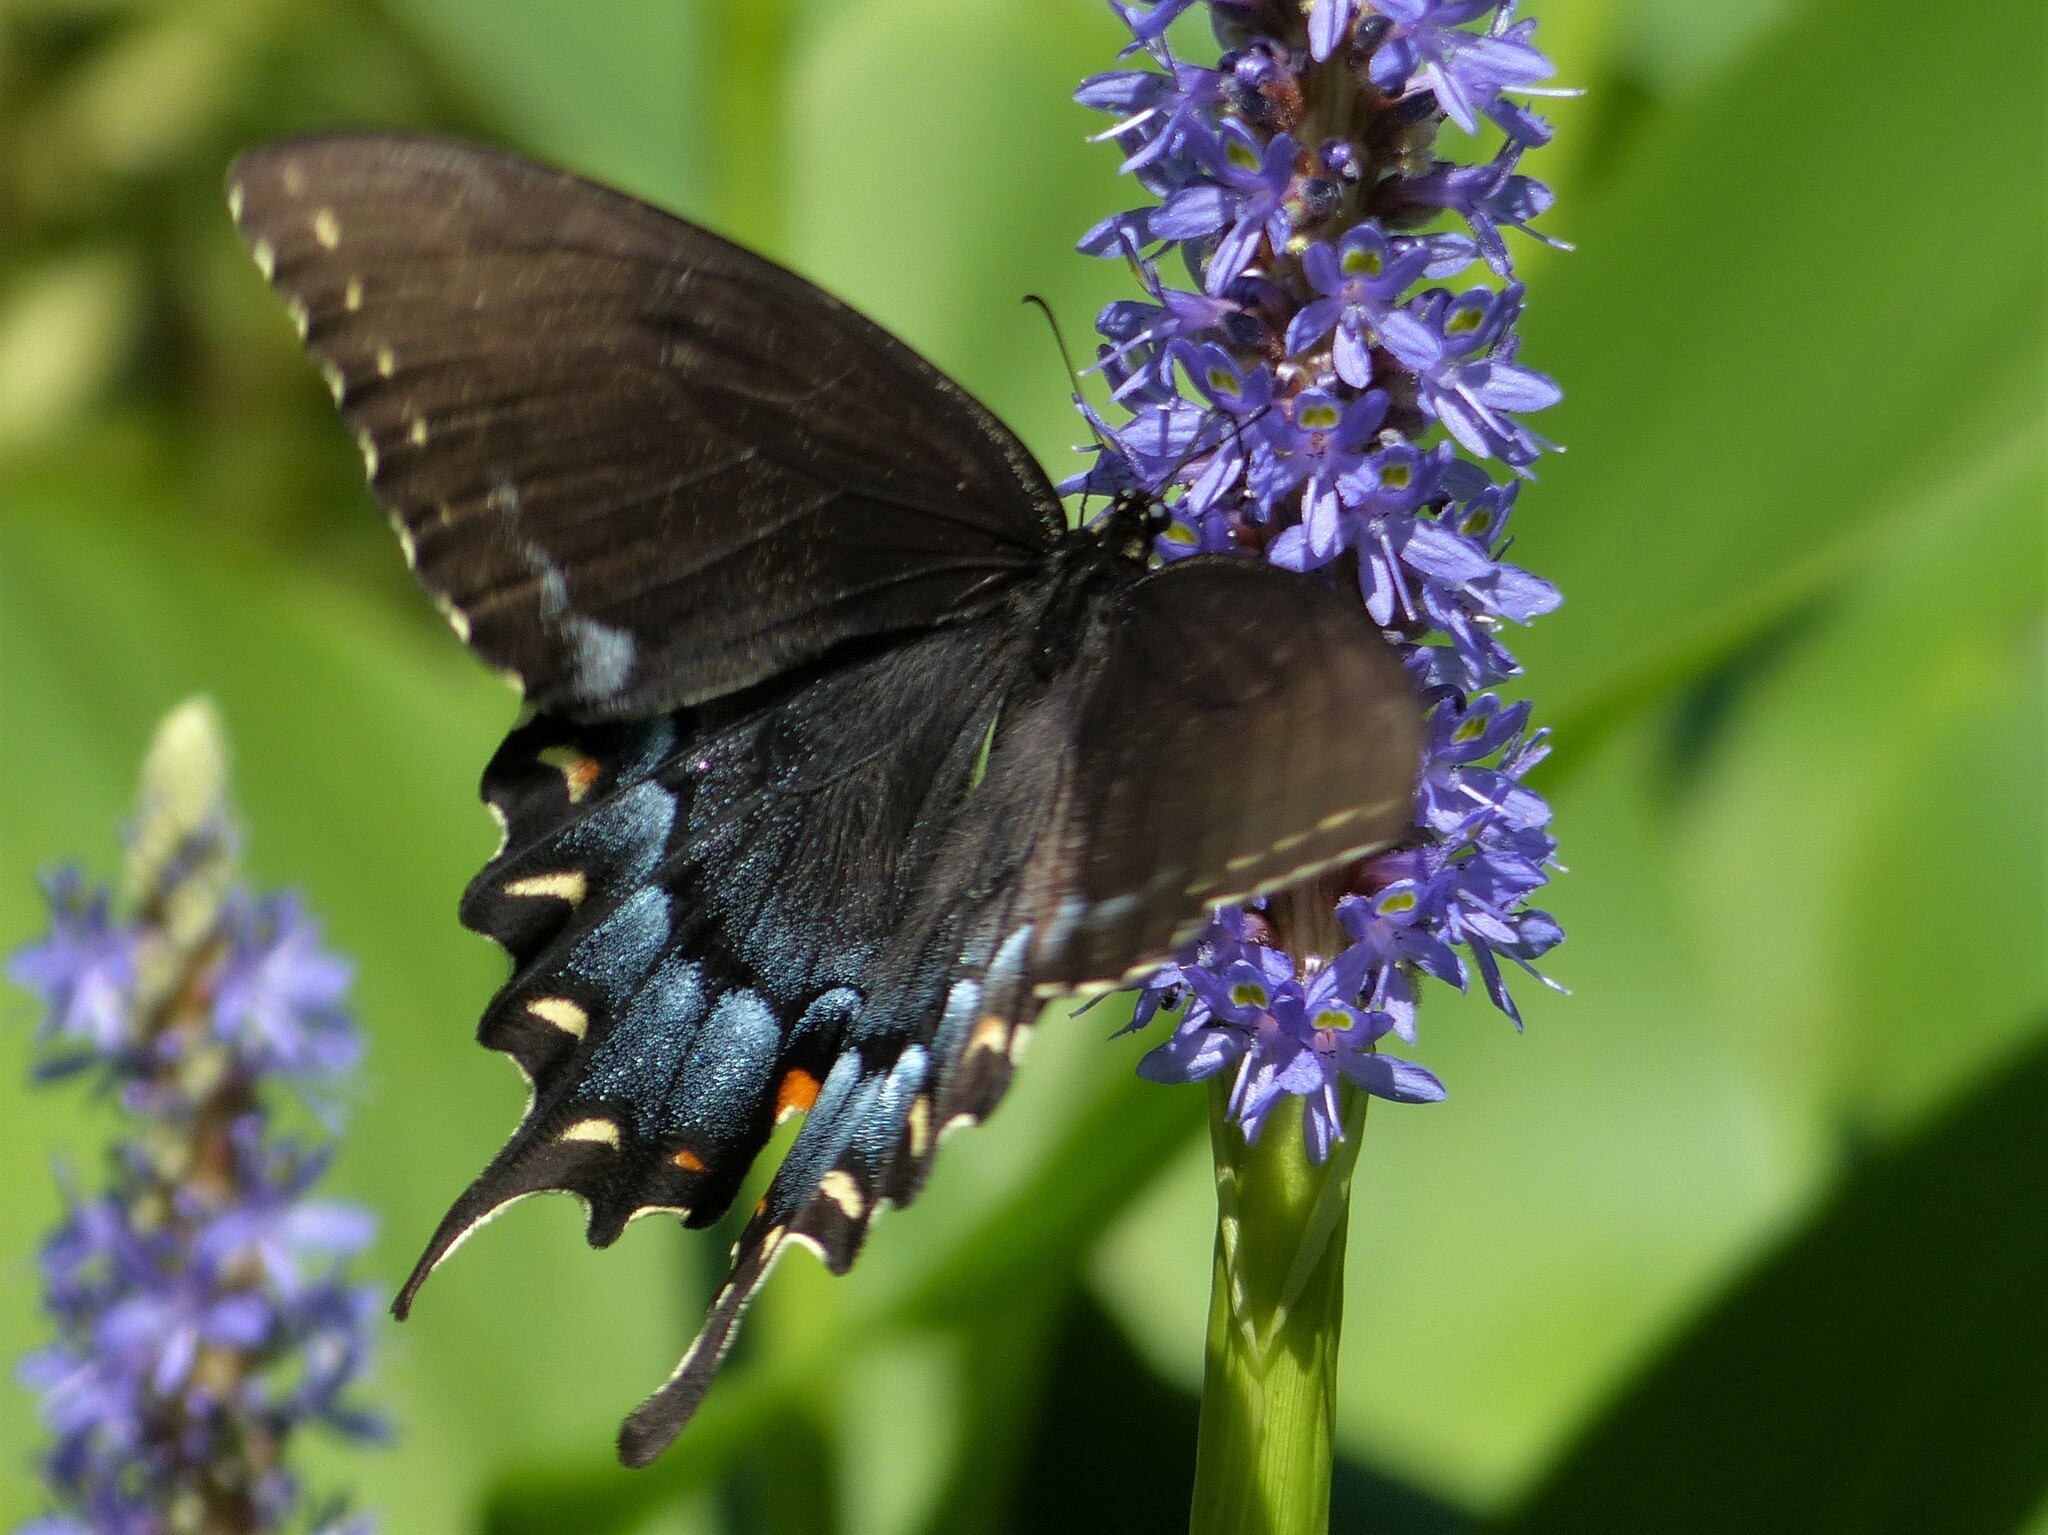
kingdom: Animalia
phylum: Arthropoda
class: Insecta
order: Lepidoptera
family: Papilionidae
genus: Papilio
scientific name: Papilio glaucus
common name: Tiger swallowtail
